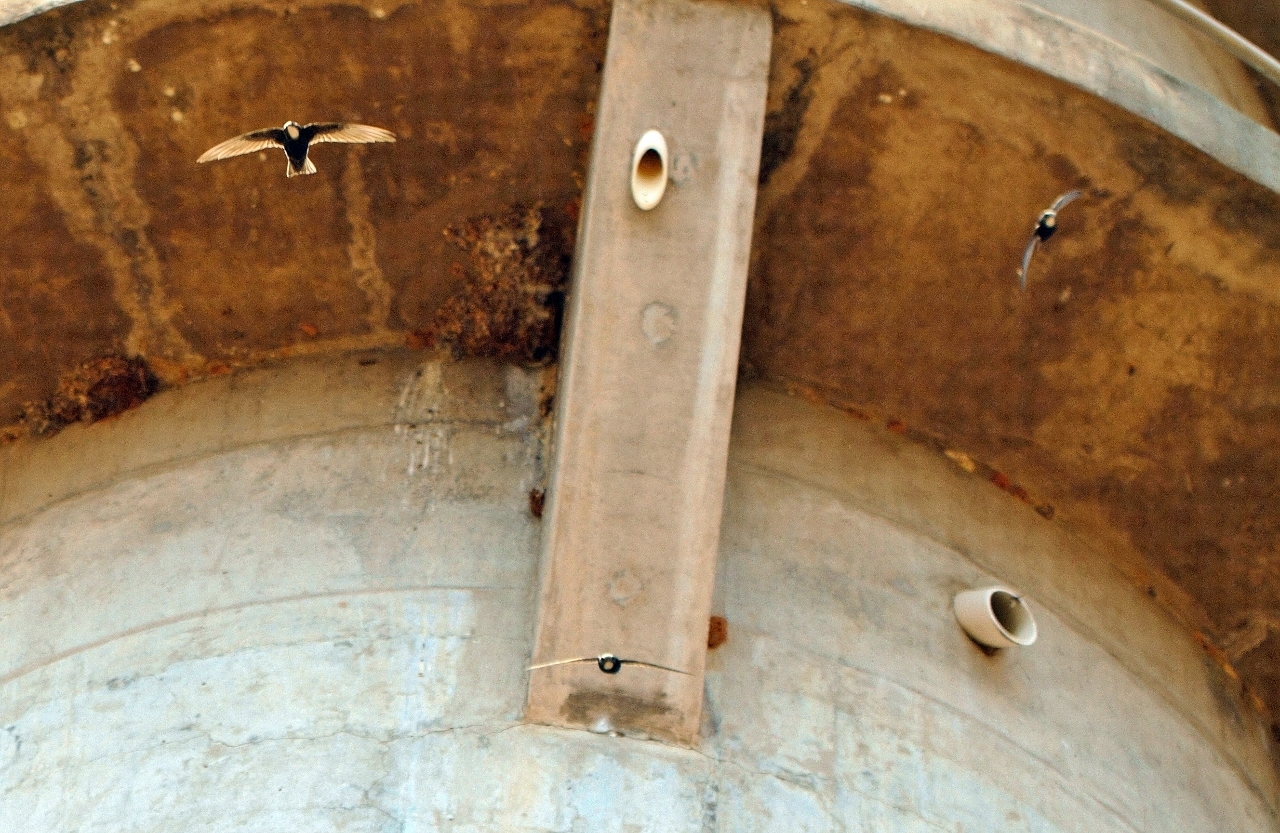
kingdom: Animalia
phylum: Chordata
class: Aves
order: Apodiformes
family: Apodidae
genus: Apus
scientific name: Apus affinis
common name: Little swift
